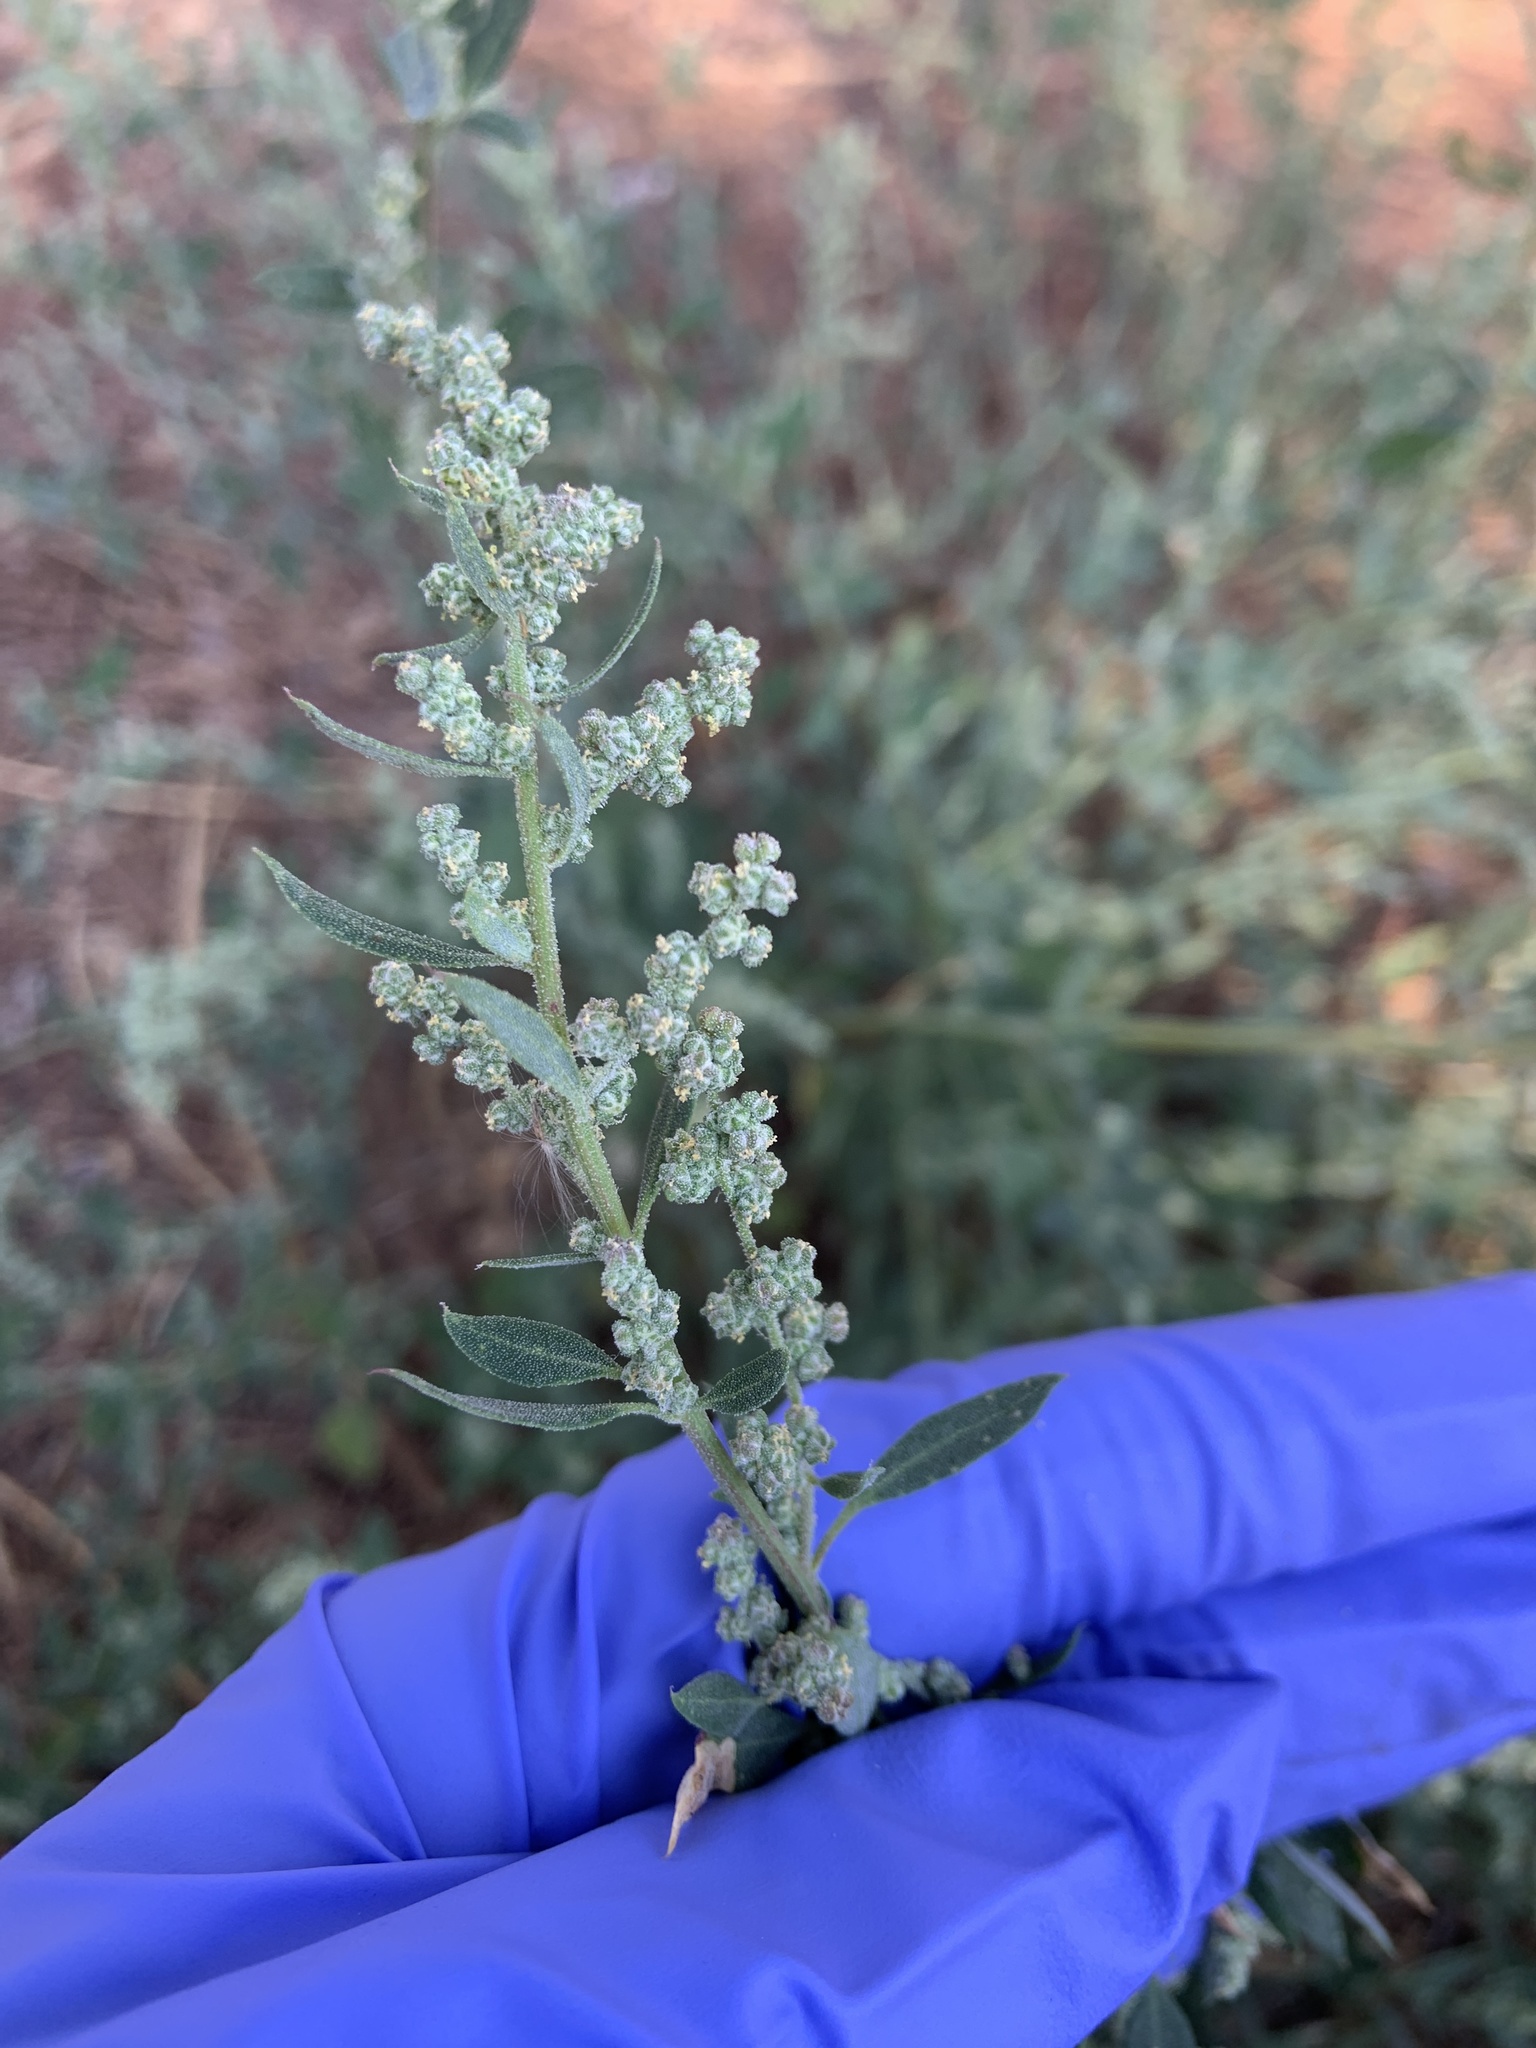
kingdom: Plantae
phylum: Tracheophyta
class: Magnoliopsida
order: Caryophyllales
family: Amaranthaceae
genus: Chenopodium
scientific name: Chenopodium album
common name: Fat-hen
